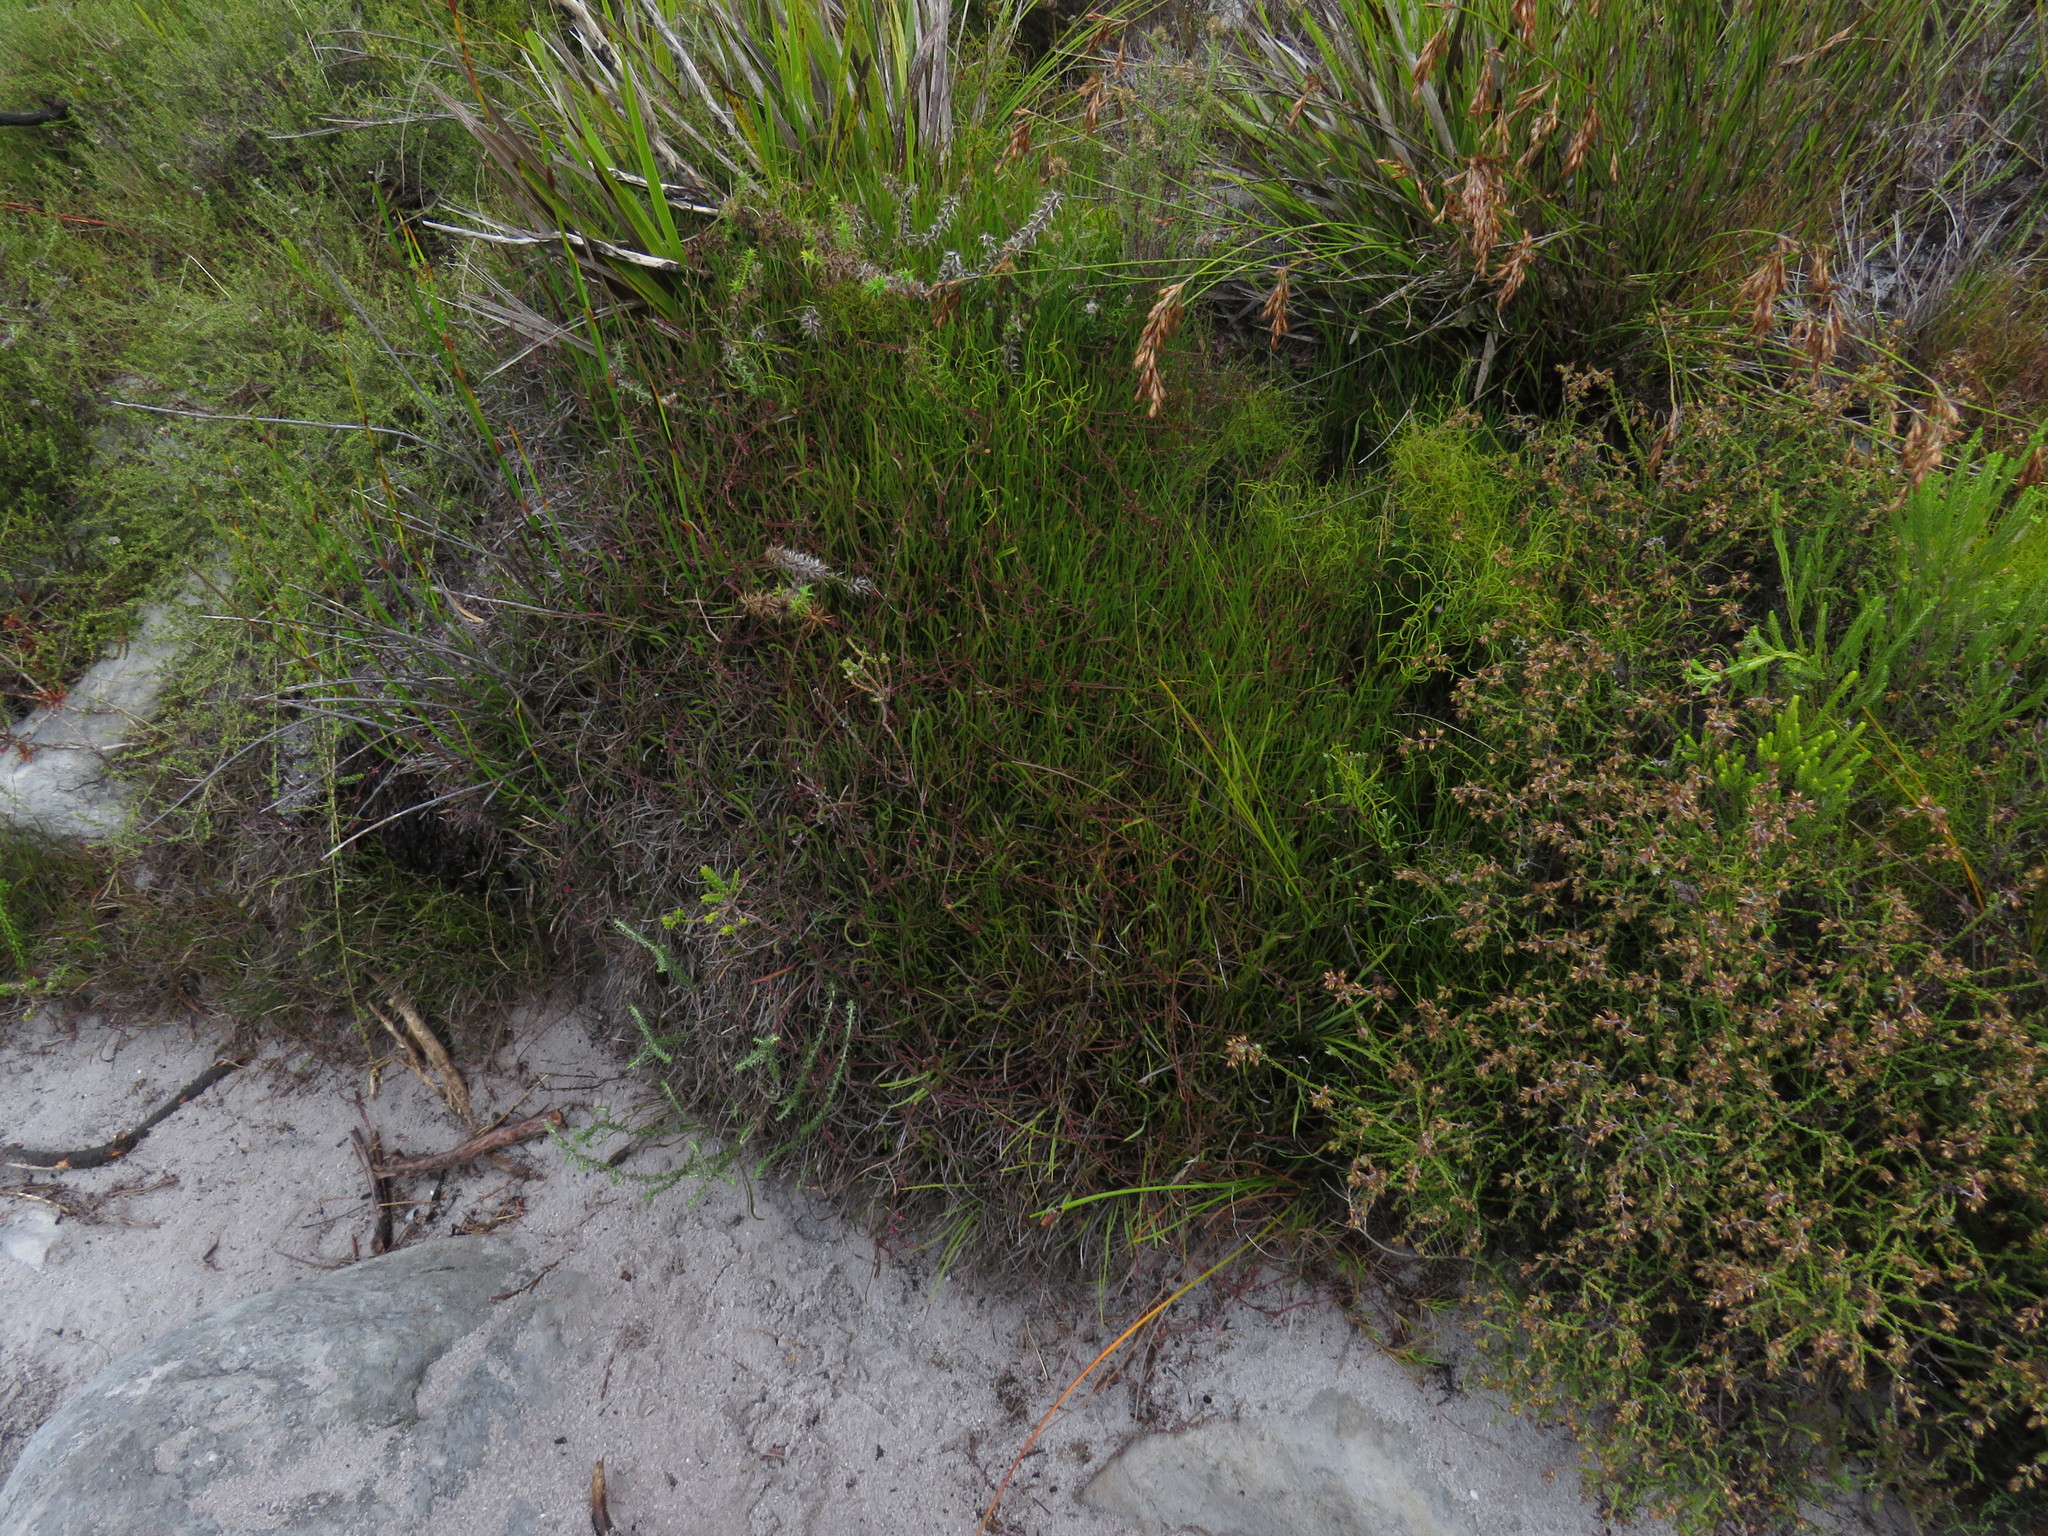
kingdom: Plantae
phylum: Tracheophyta
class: Magnoliopsida
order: Apiales
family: Apiaceae
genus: Centella
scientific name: Centella affinis
